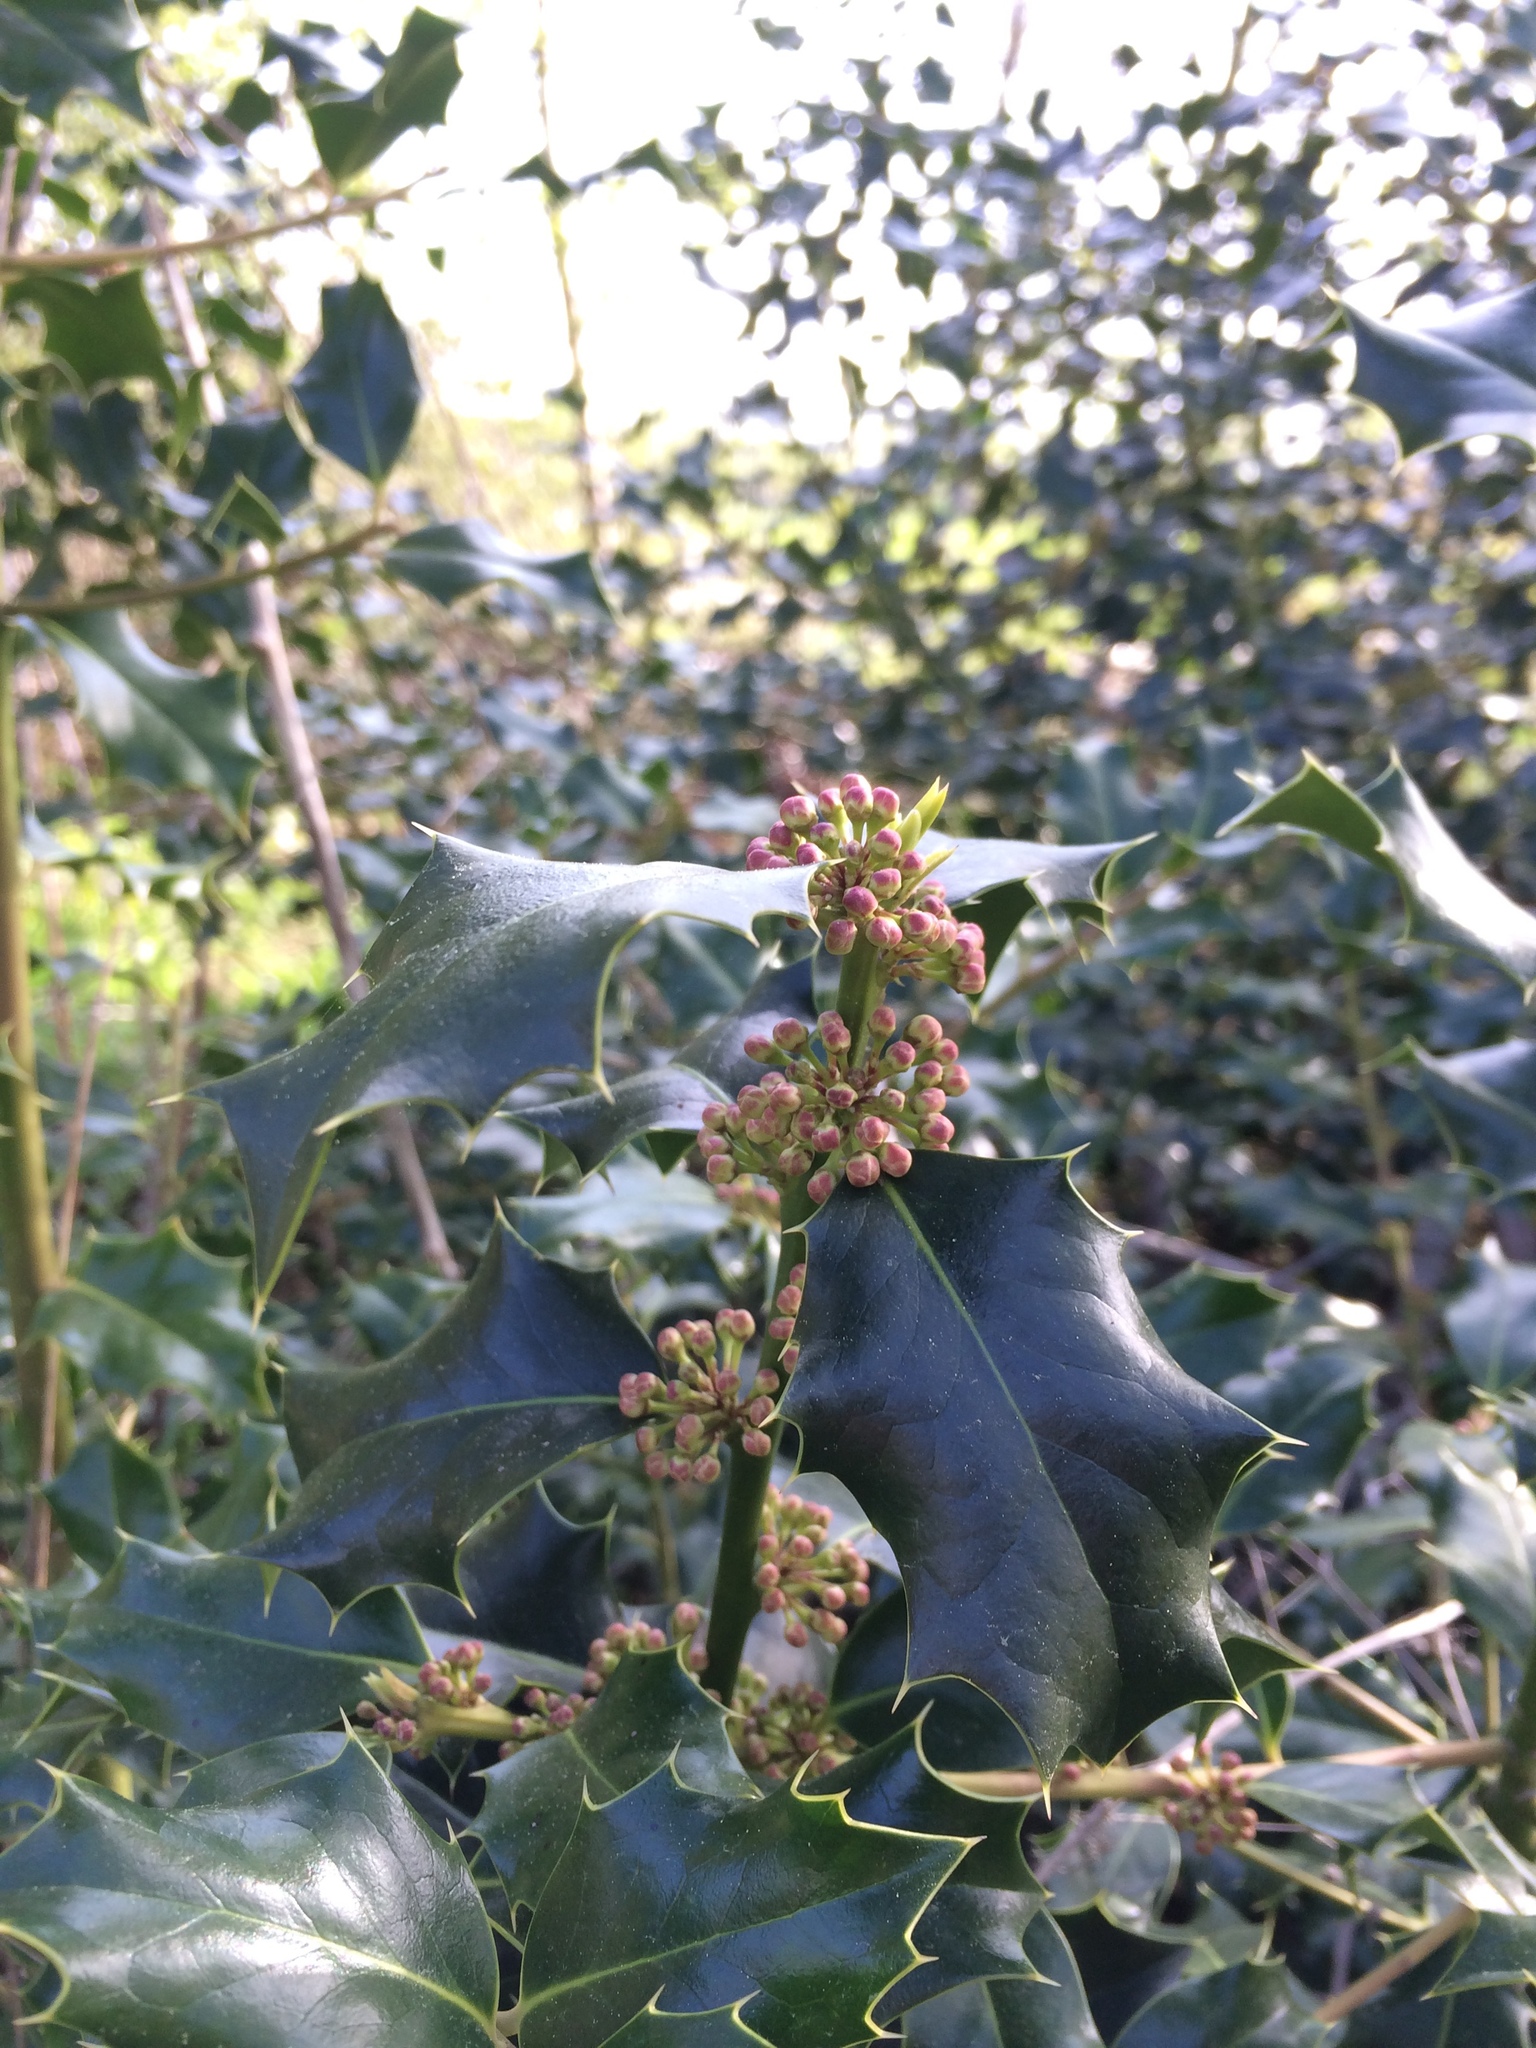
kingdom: Plantae
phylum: Tracheophyta
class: Magnoliopsida
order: Aquifoliales
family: Aquifoliaceae
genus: Ilex
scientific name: Ilex aquifolium
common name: English holly
